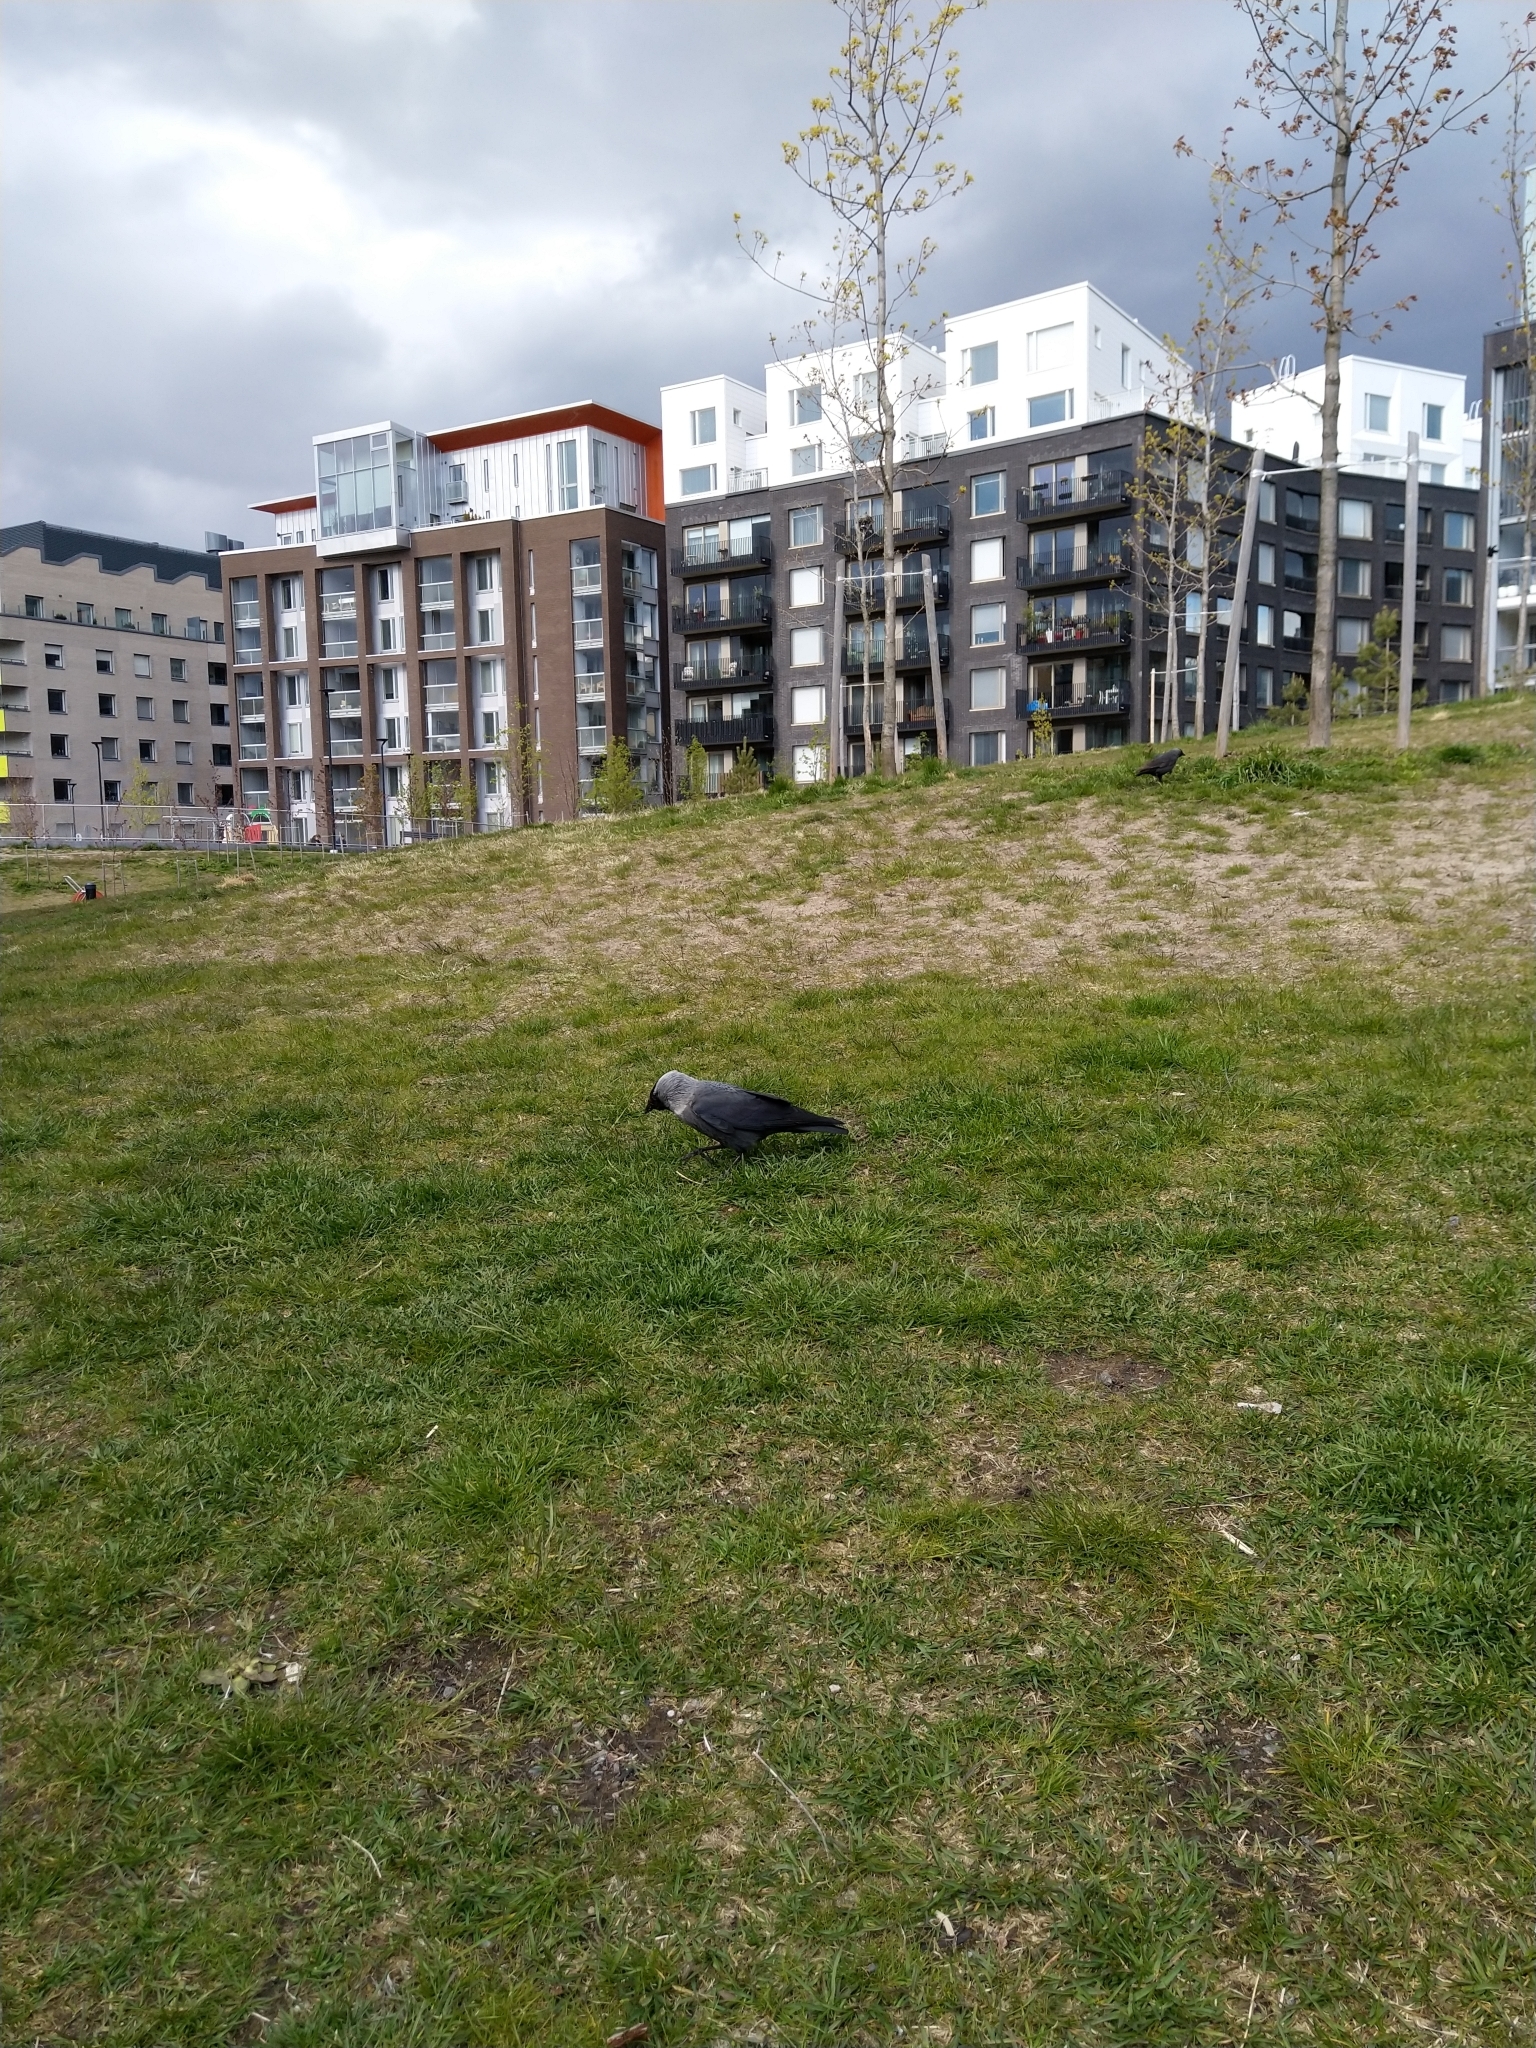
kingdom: Animalia
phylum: Chordata
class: Aves
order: Passeriformes
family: Corvidae
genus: Coloeus
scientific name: Coloeus monedula
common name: Western jackdaw
